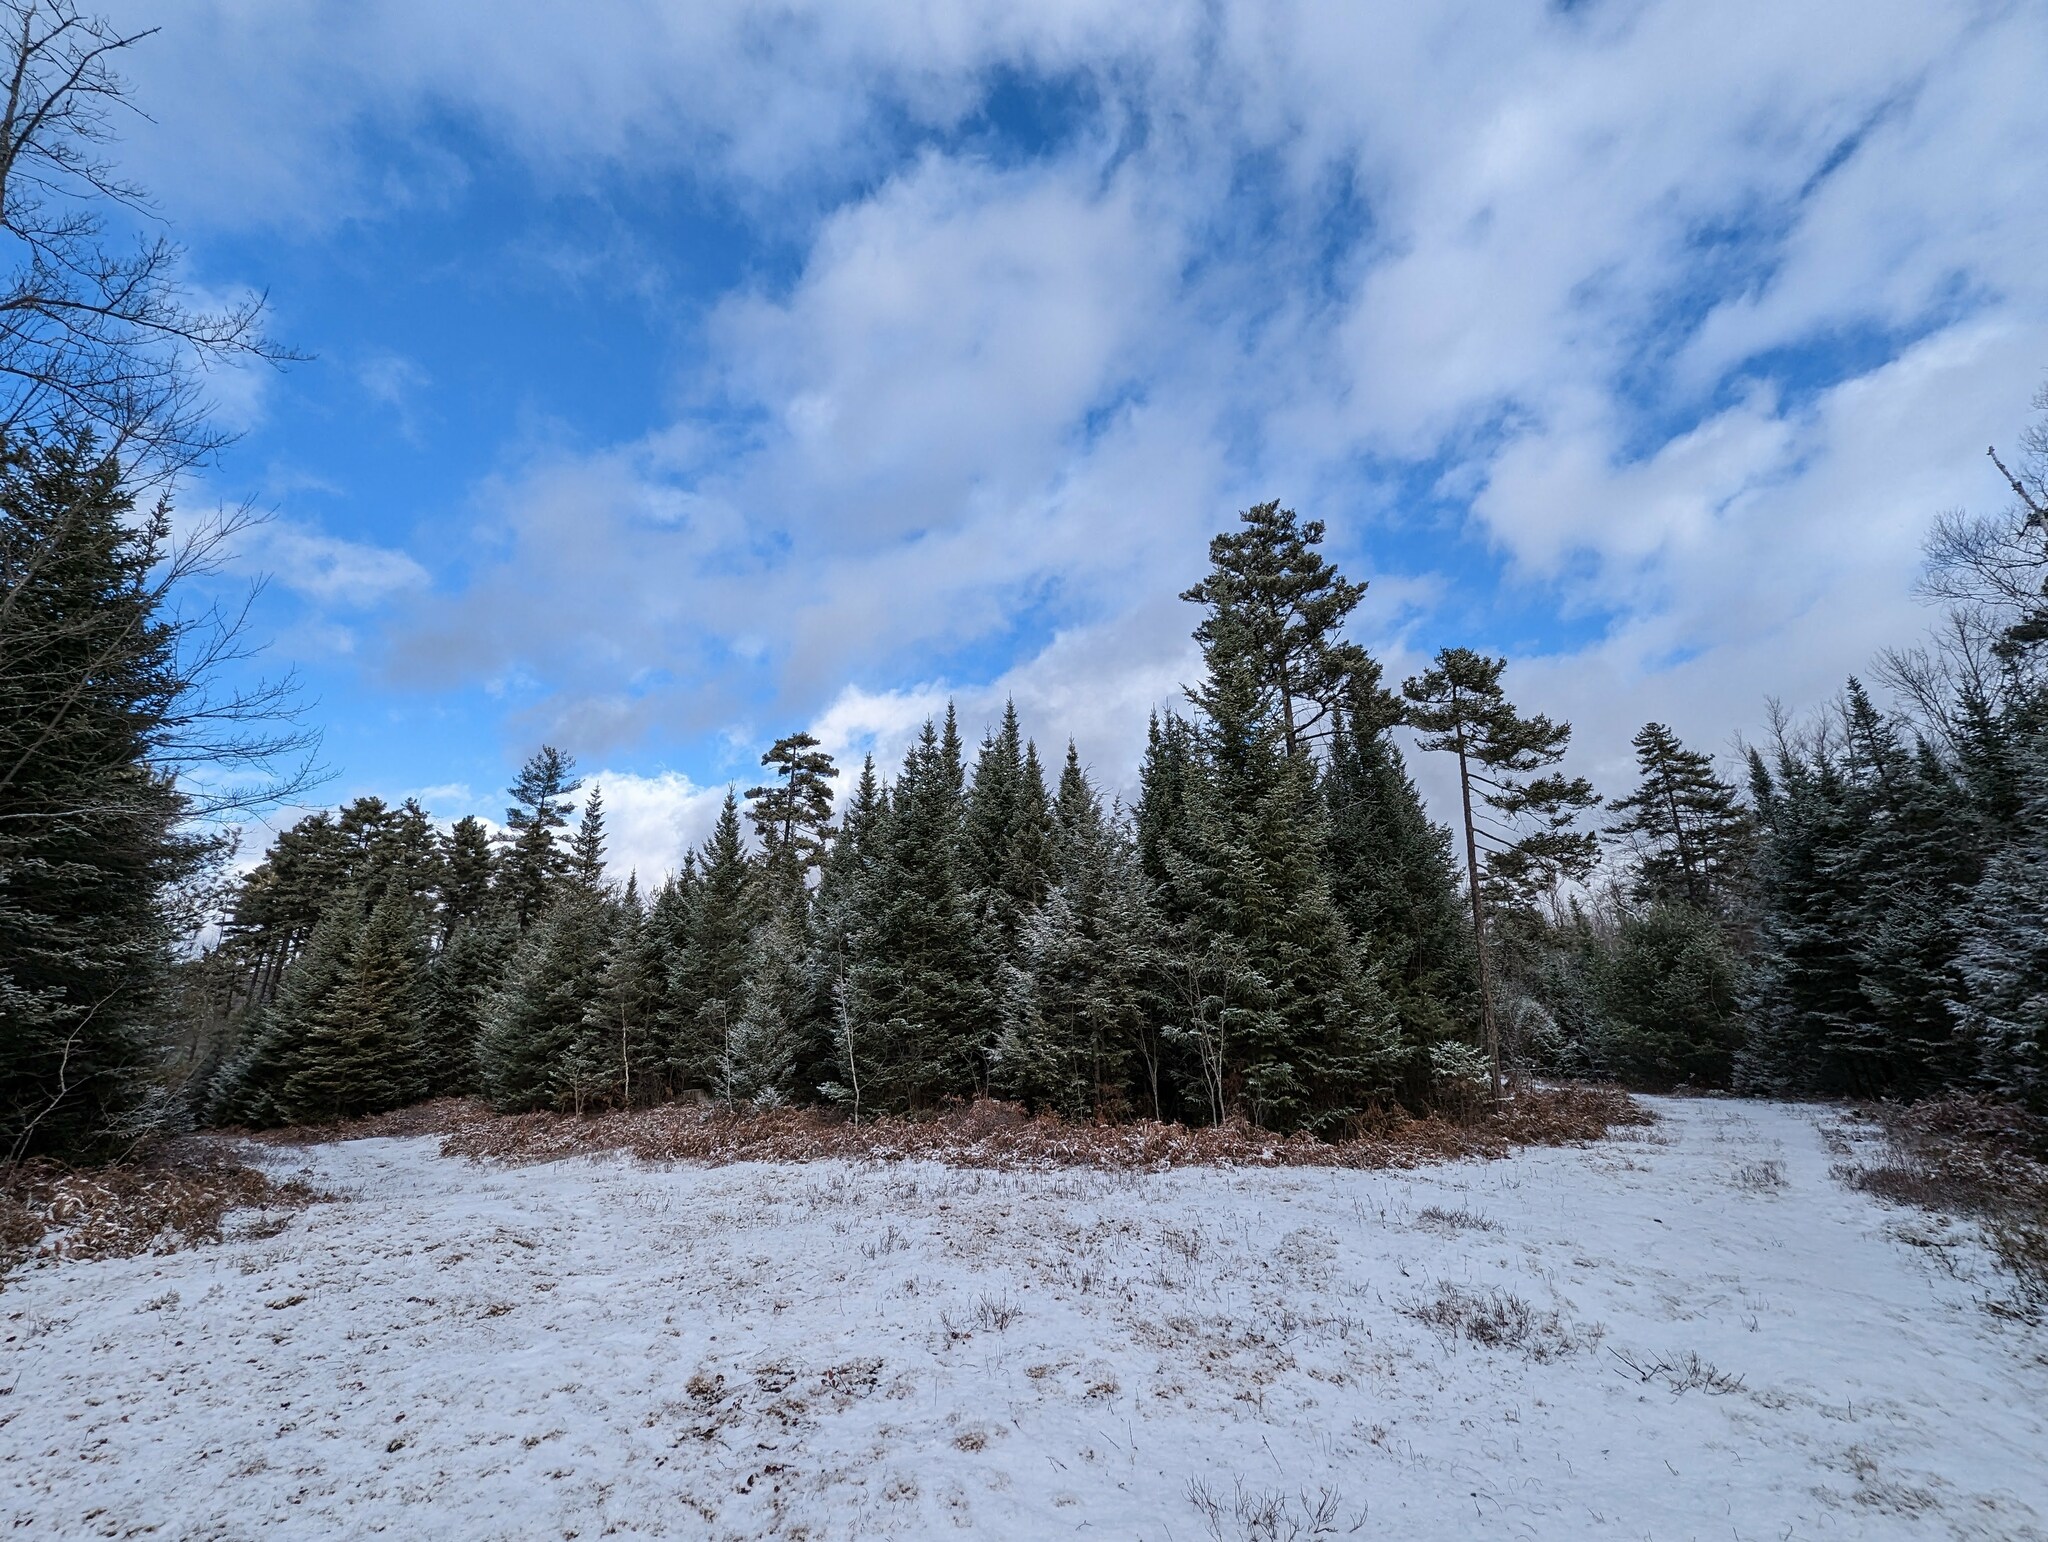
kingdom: Plantae
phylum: Tracheophyta
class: Pinopsida
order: Pinales
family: Pinaceae
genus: Pinus
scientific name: Pinus strobus
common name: Weymouth pine
